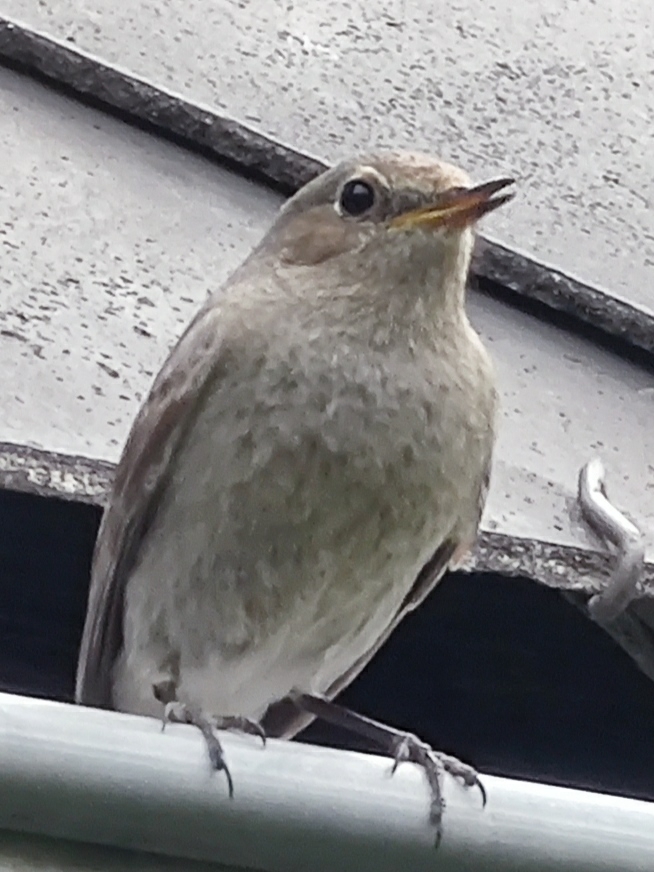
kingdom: Animalia
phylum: Chordata
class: Aves
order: Passeriformes
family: Muscicapidae
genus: Phoenicurus
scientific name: Phoenicurus ochruros
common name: Black redstart
